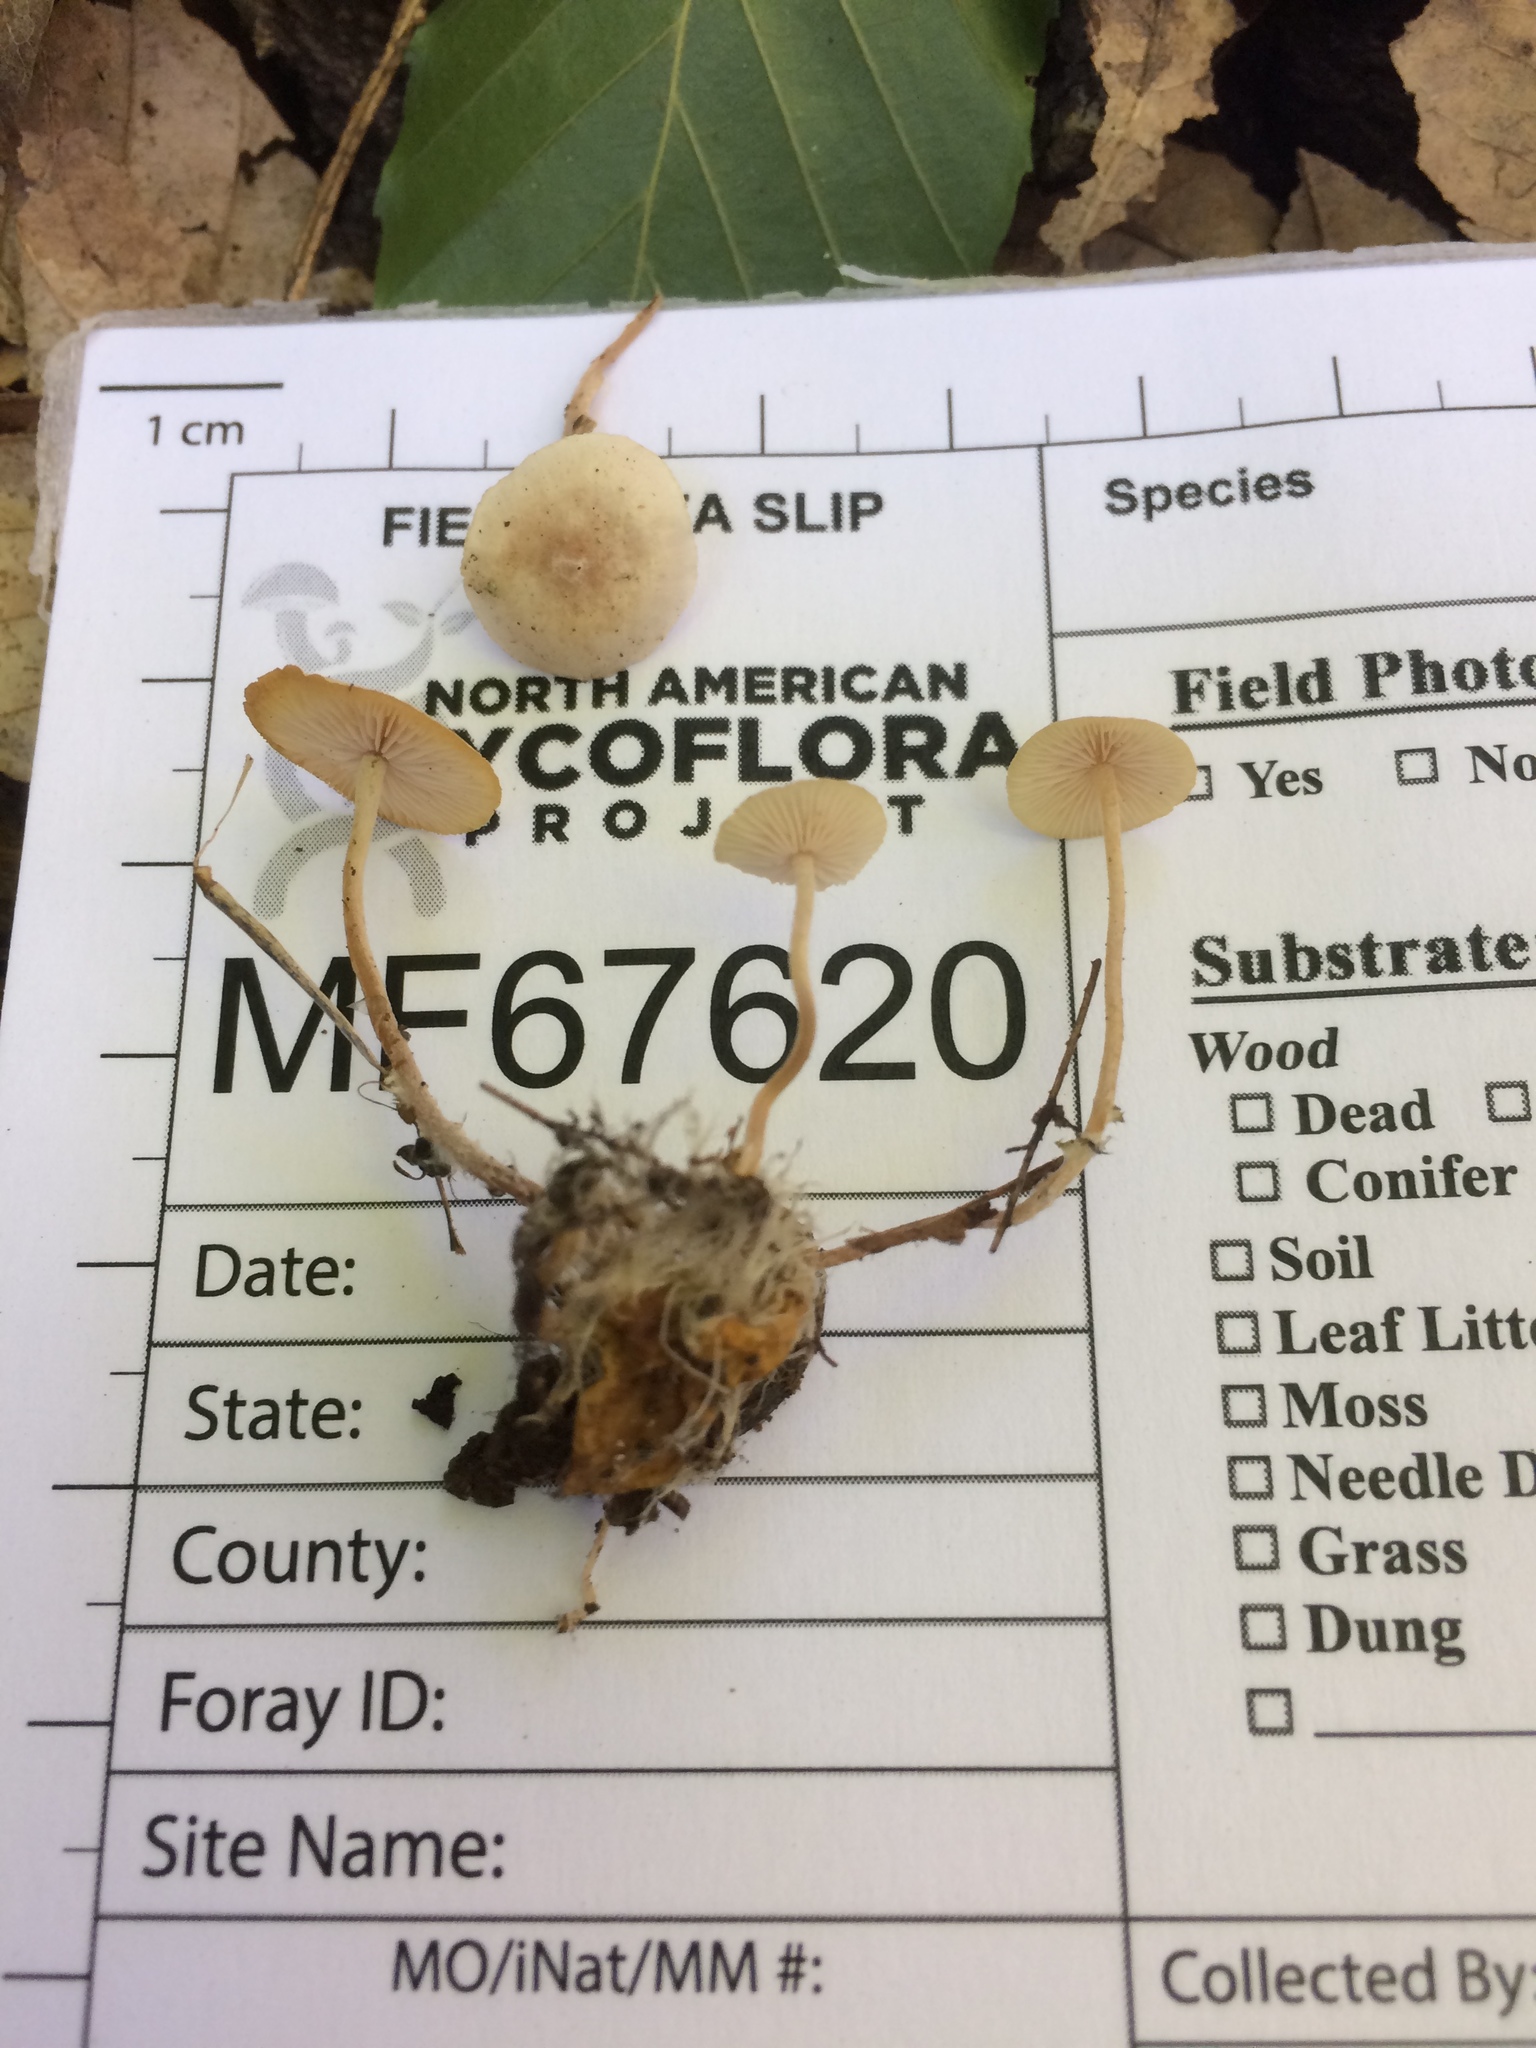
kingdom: Fungi
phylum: Basidiomycota
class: Agaricomycetes
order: Agaricales
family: Tricholomataceae
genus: Collybia
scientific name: Collybia cookei
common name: Splitpea shanklet
